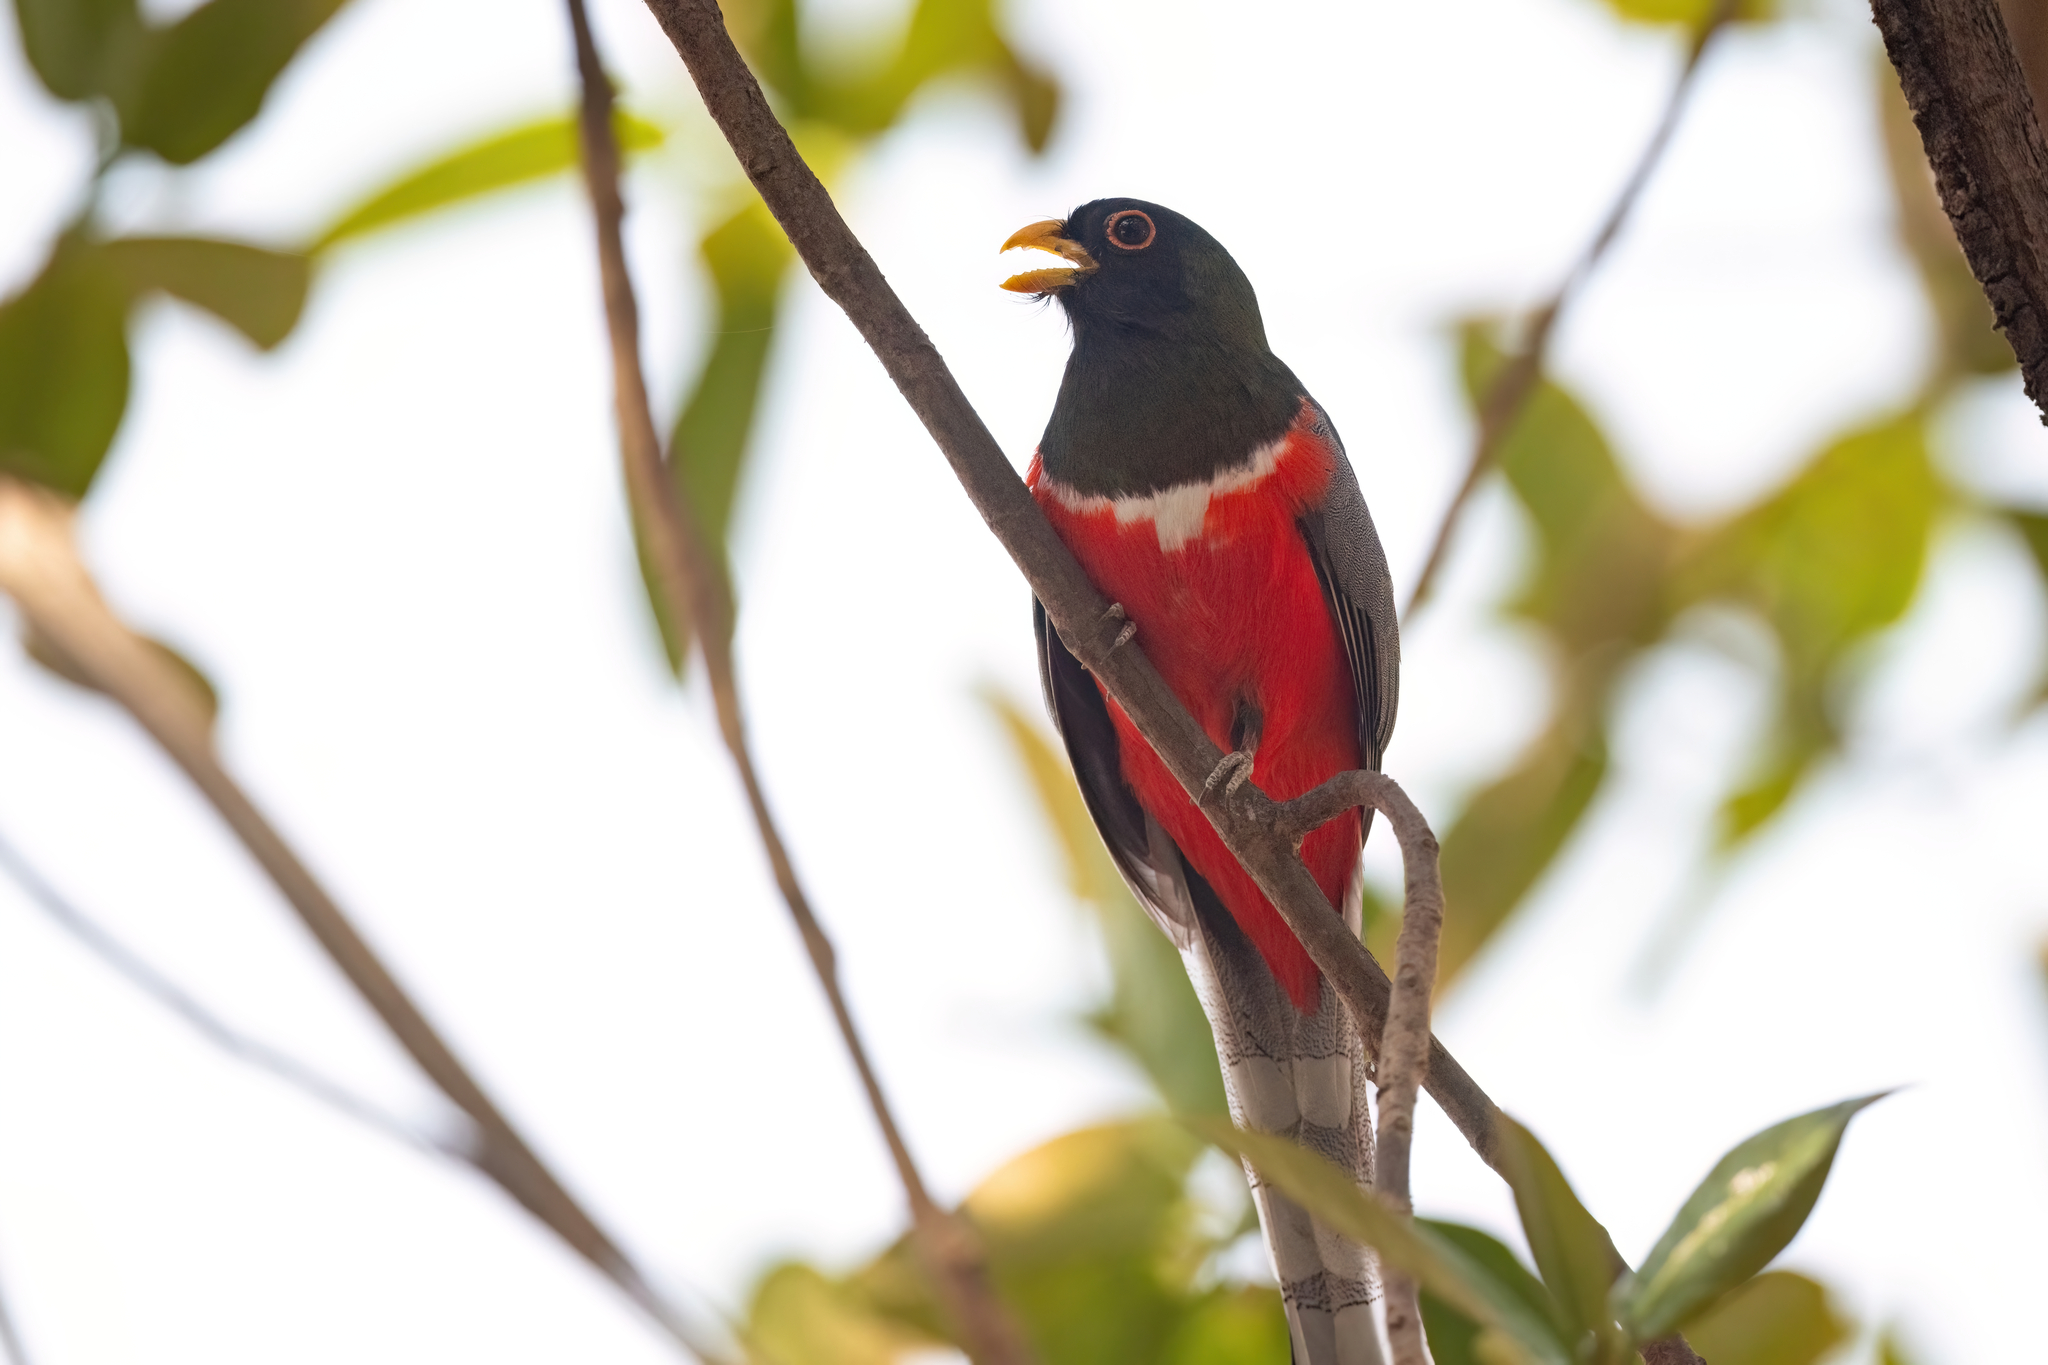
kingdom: Animalia
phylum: Chordata
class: Aves
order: Trogoniformes
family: Trogonidae
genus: Trogon
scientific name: Trogon elegans
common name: Elegant trogon
